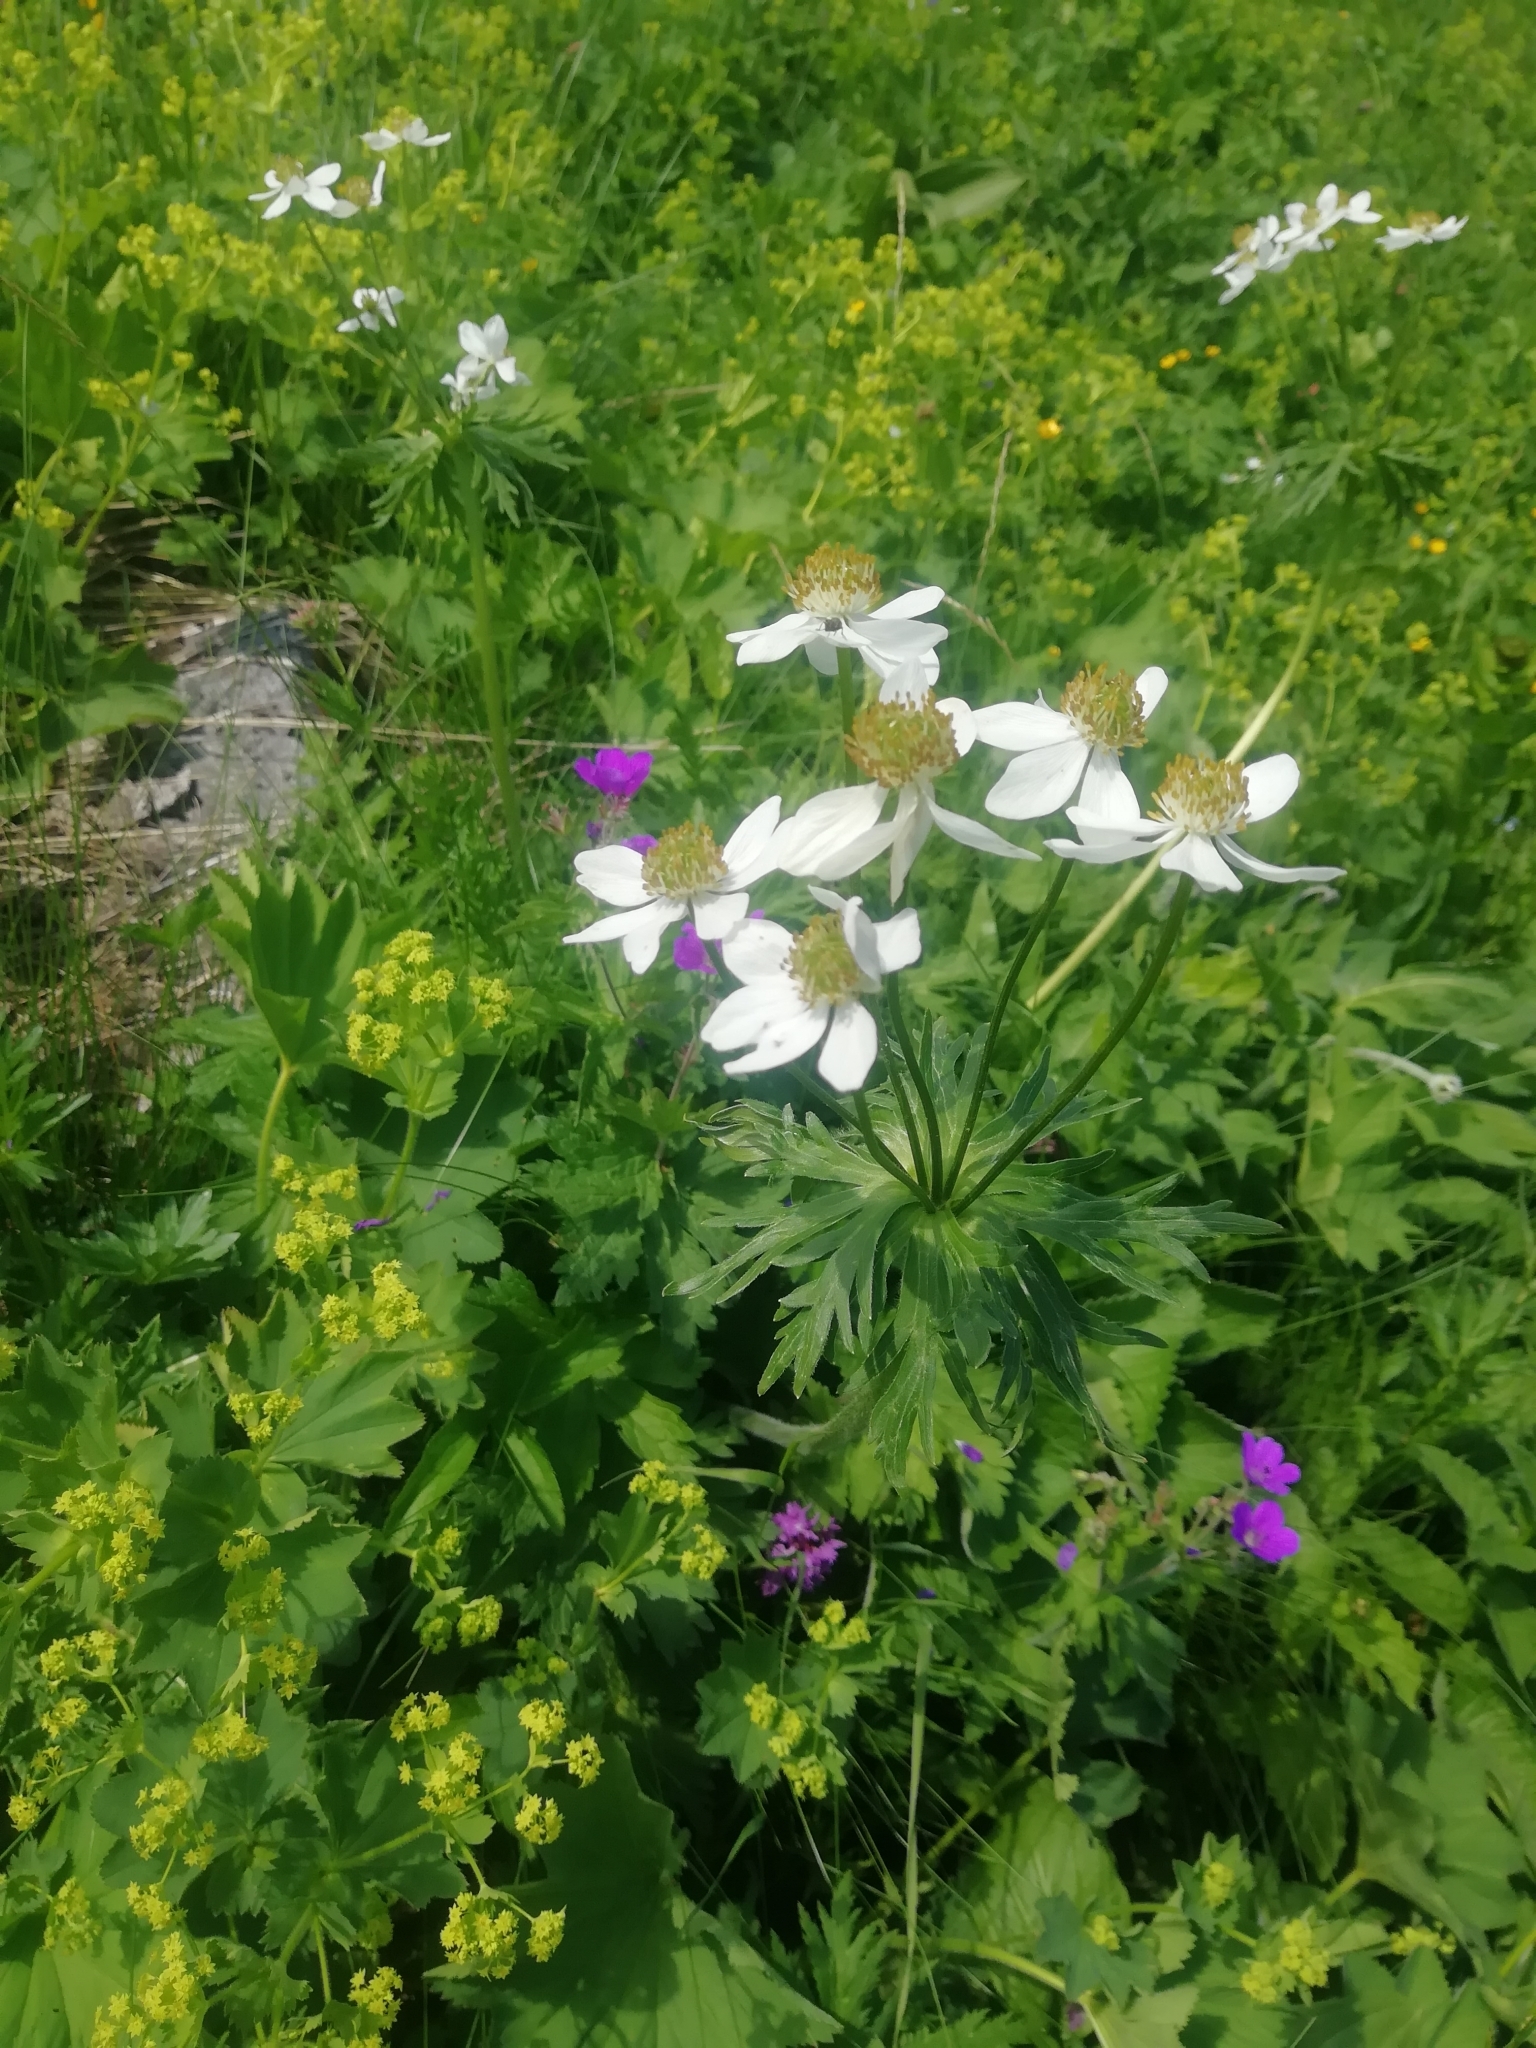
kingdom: Plantae
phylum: Tracheophyta
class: Magnoliopsida
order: Ranunculales
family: Ranunculaceae
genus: Anemonastrum
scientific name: Anemonastrum narcissiflorum
